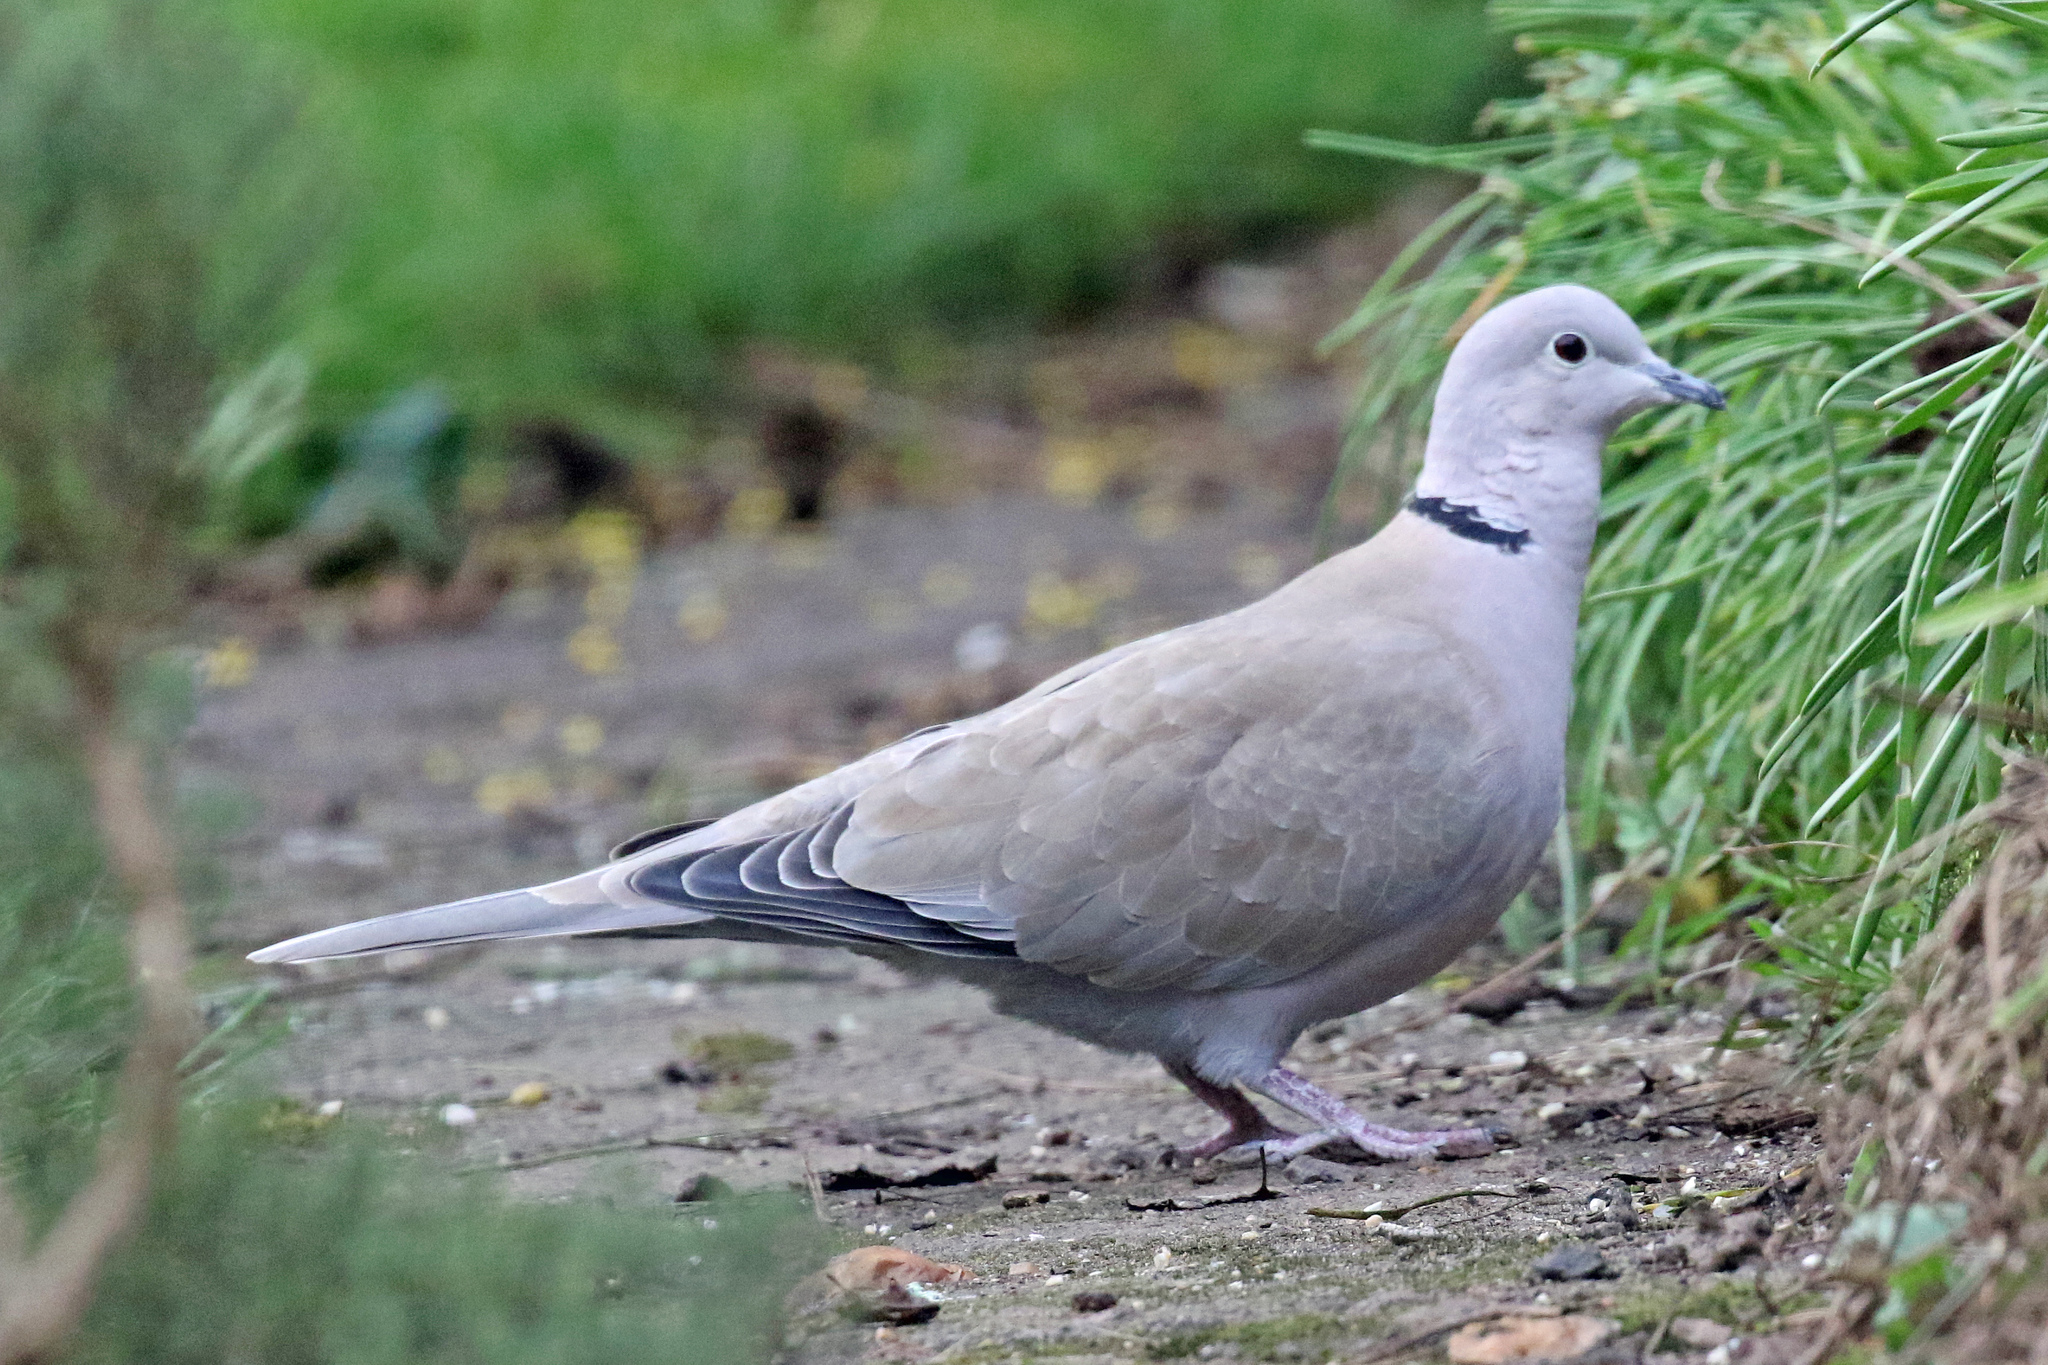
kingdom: Animalia
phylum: Chordata
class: Aves
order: Columbiformes
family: Columbidae
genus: Streptopelia
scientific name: Streptopelia decaocto
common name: Eurasian collared dove
